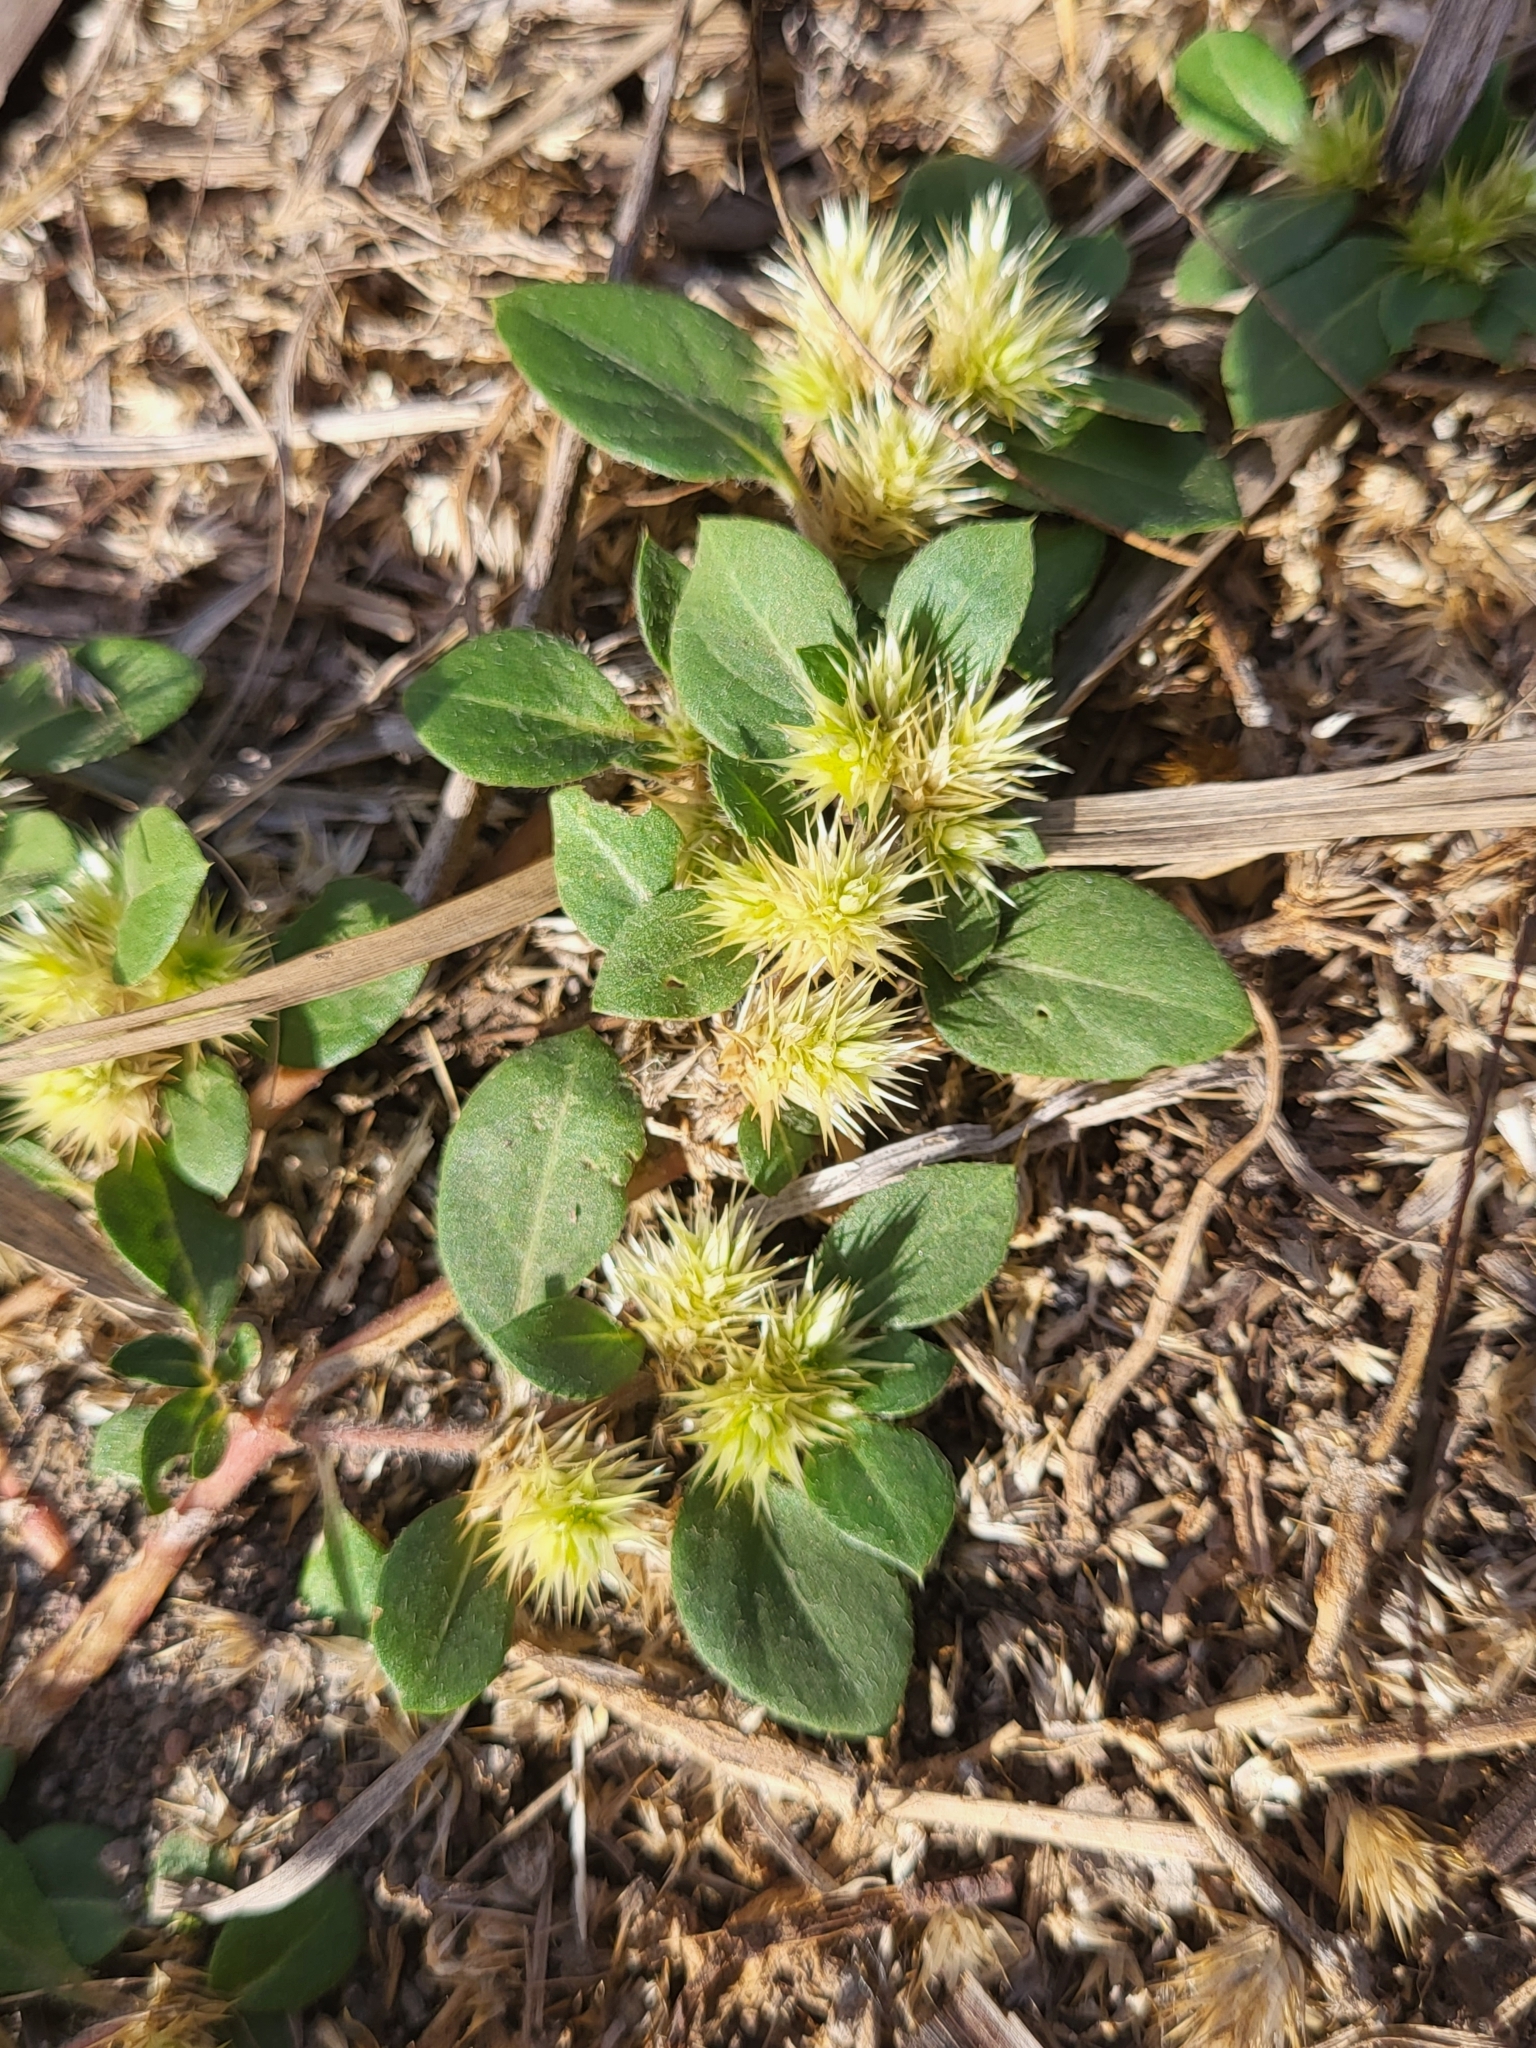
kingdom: Plantae
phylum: Tracheophyta
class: Magnoliopsida
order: Caryophyllales
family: Amaranthaceae
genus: Alternanthera
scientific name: Alternanthera pungens
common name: Khakiweed
